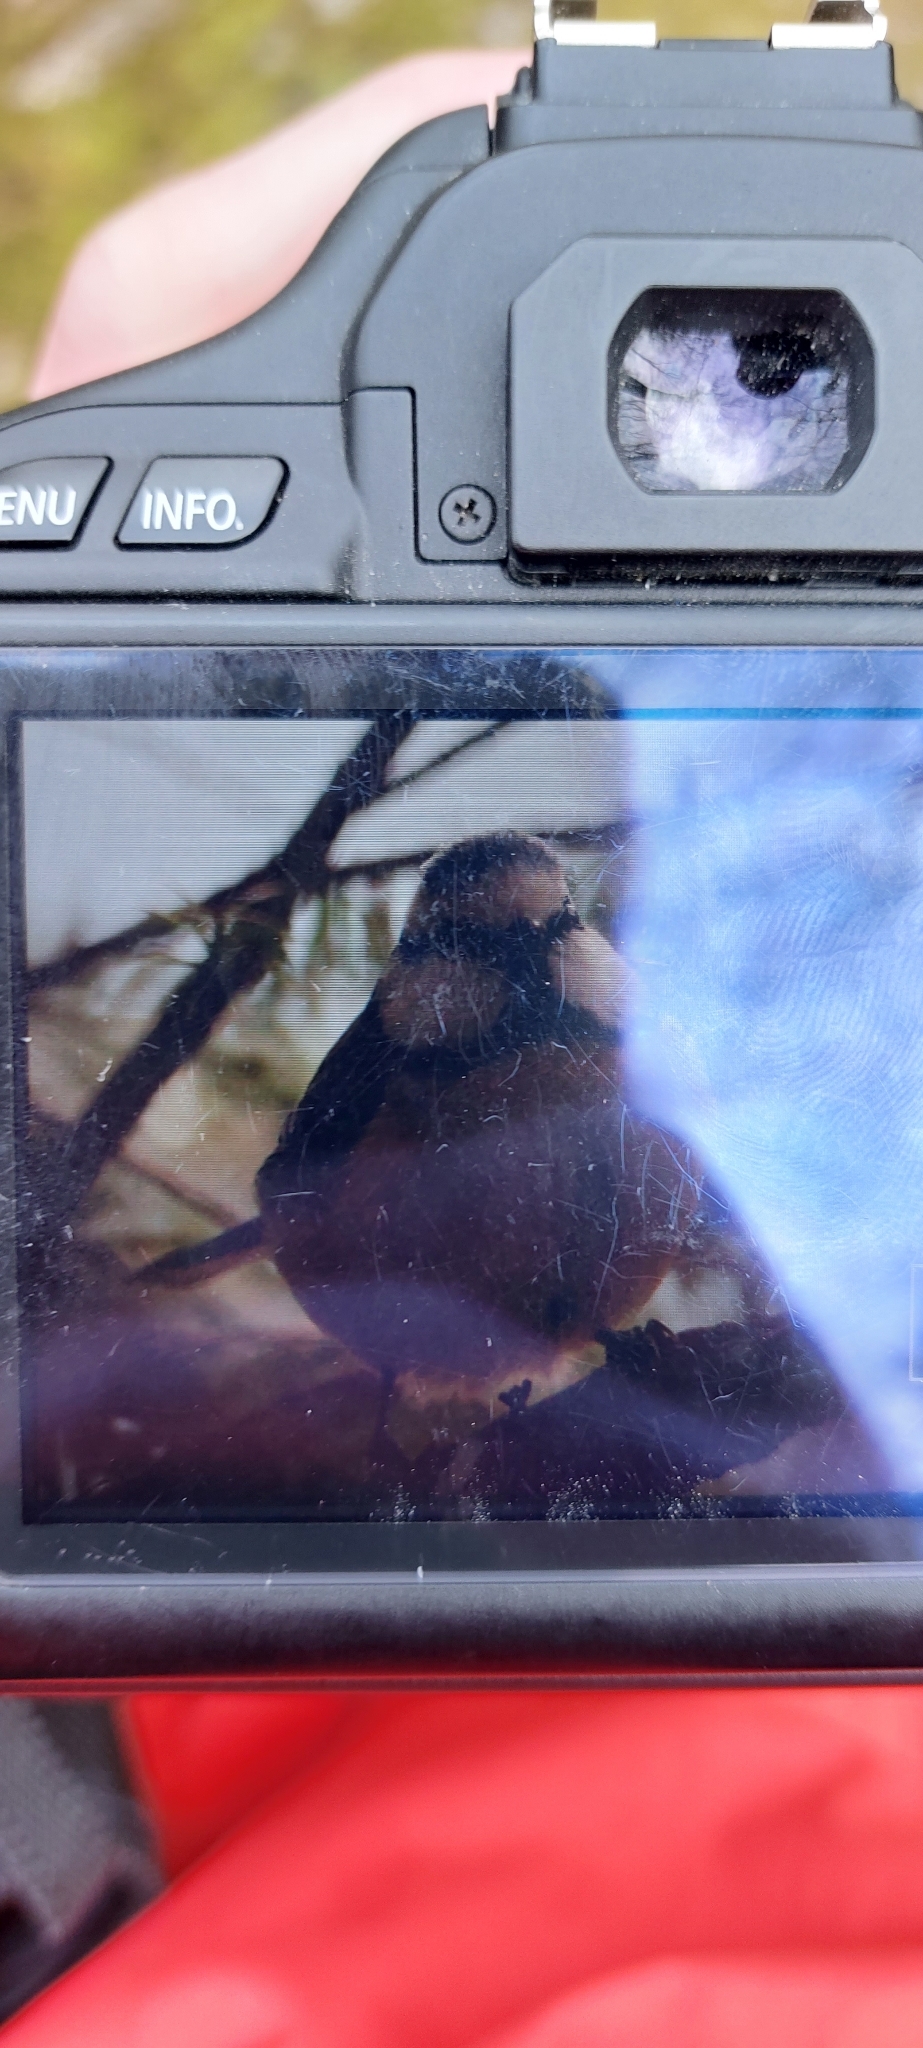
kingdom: Animalia
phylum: Chordata
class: Aves
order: Passeriformes
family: Paridae
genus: Cyanistes
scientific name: Cyanistes caeruleus
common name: Eurasian blue tit
